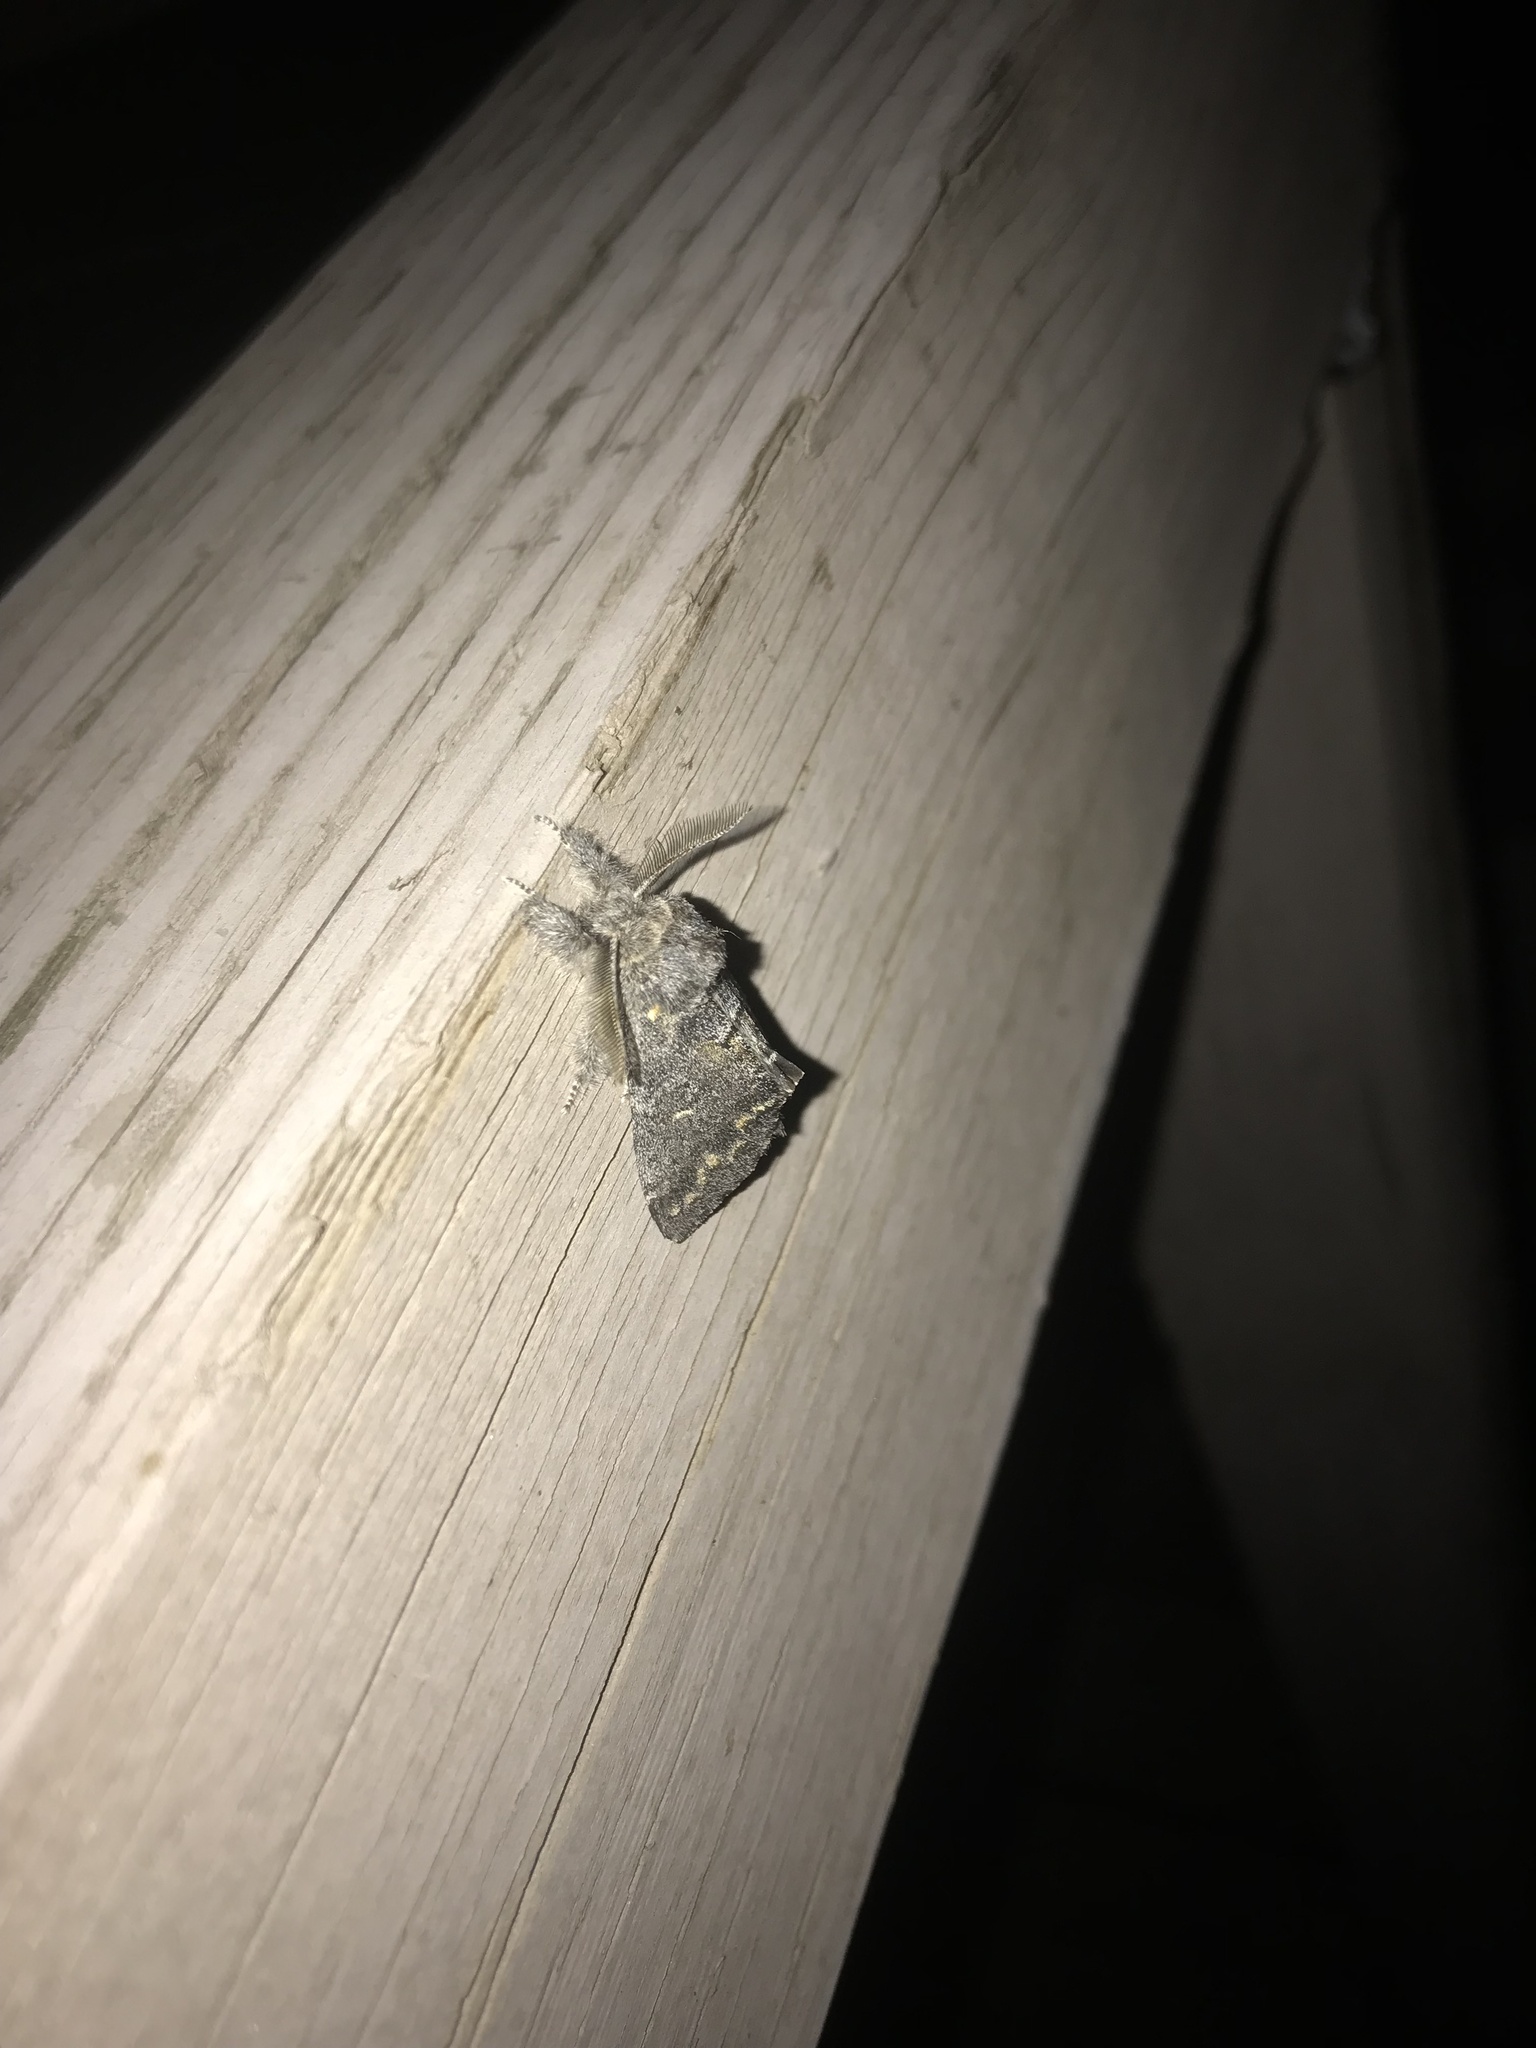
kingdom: Animalia
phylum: Arthropoda
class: Insecta
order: Lepidoptera
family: Notodontidae
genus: Gluphisia
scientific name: Gluphisia severa
